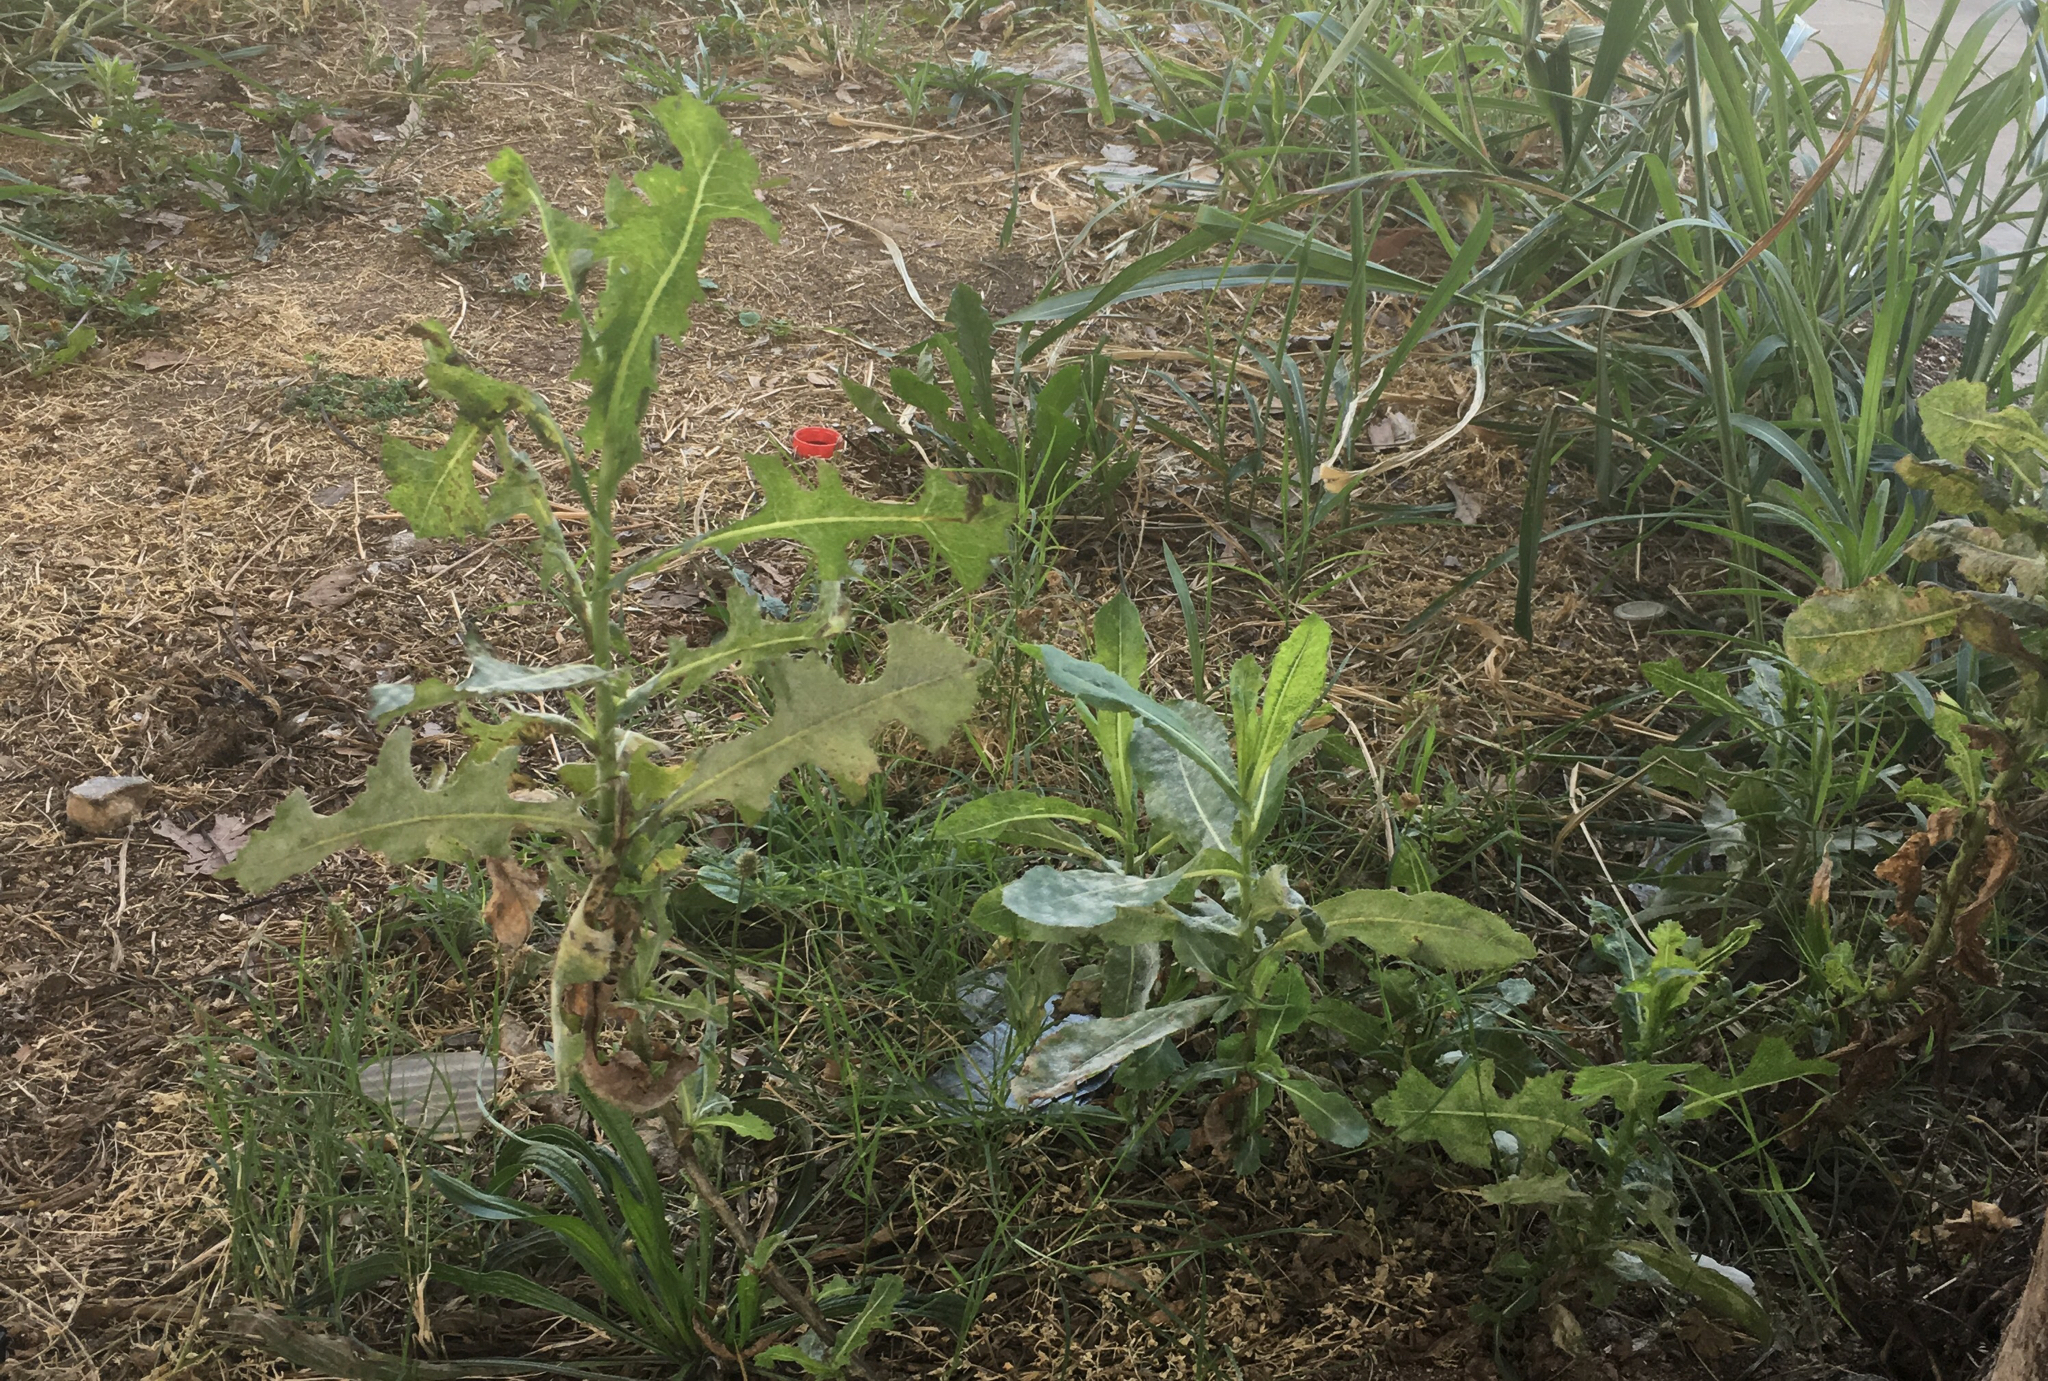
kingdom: Plantae
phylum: Tracheophyta
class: Magnoliopsida
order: Asterales
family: Asteraceae
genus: Lactuca
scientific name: Lactuca serriola
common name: Prickly lettuce
